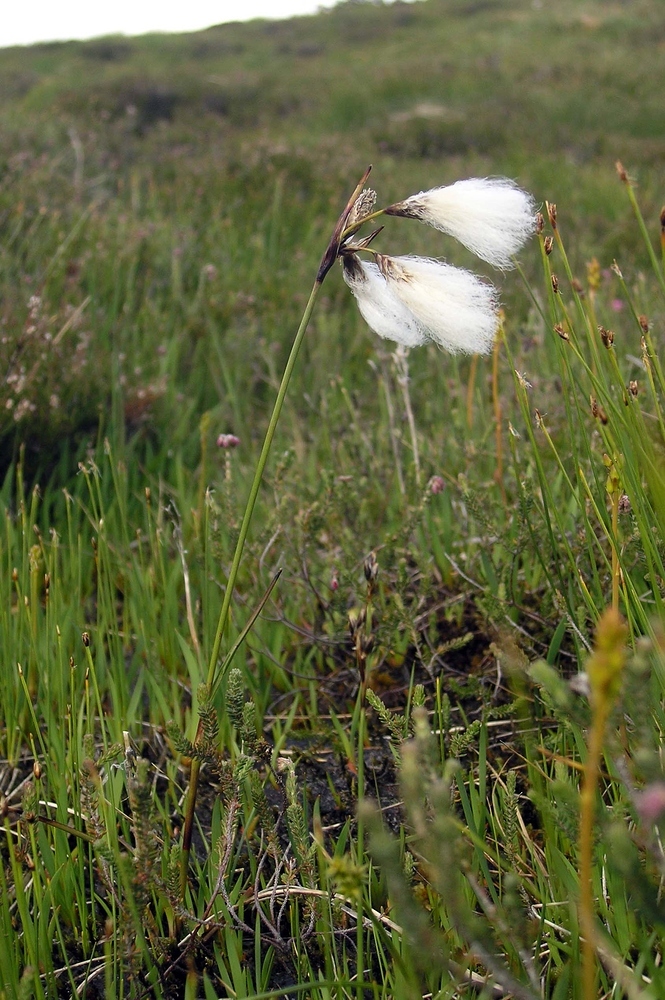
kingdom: Plantae
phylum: Tracheophyta
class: Liliopsida
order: Poales
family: Cyperaceae
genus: Eriophorum
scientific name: Eriophorum angustifolium
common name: Common cottongrass
